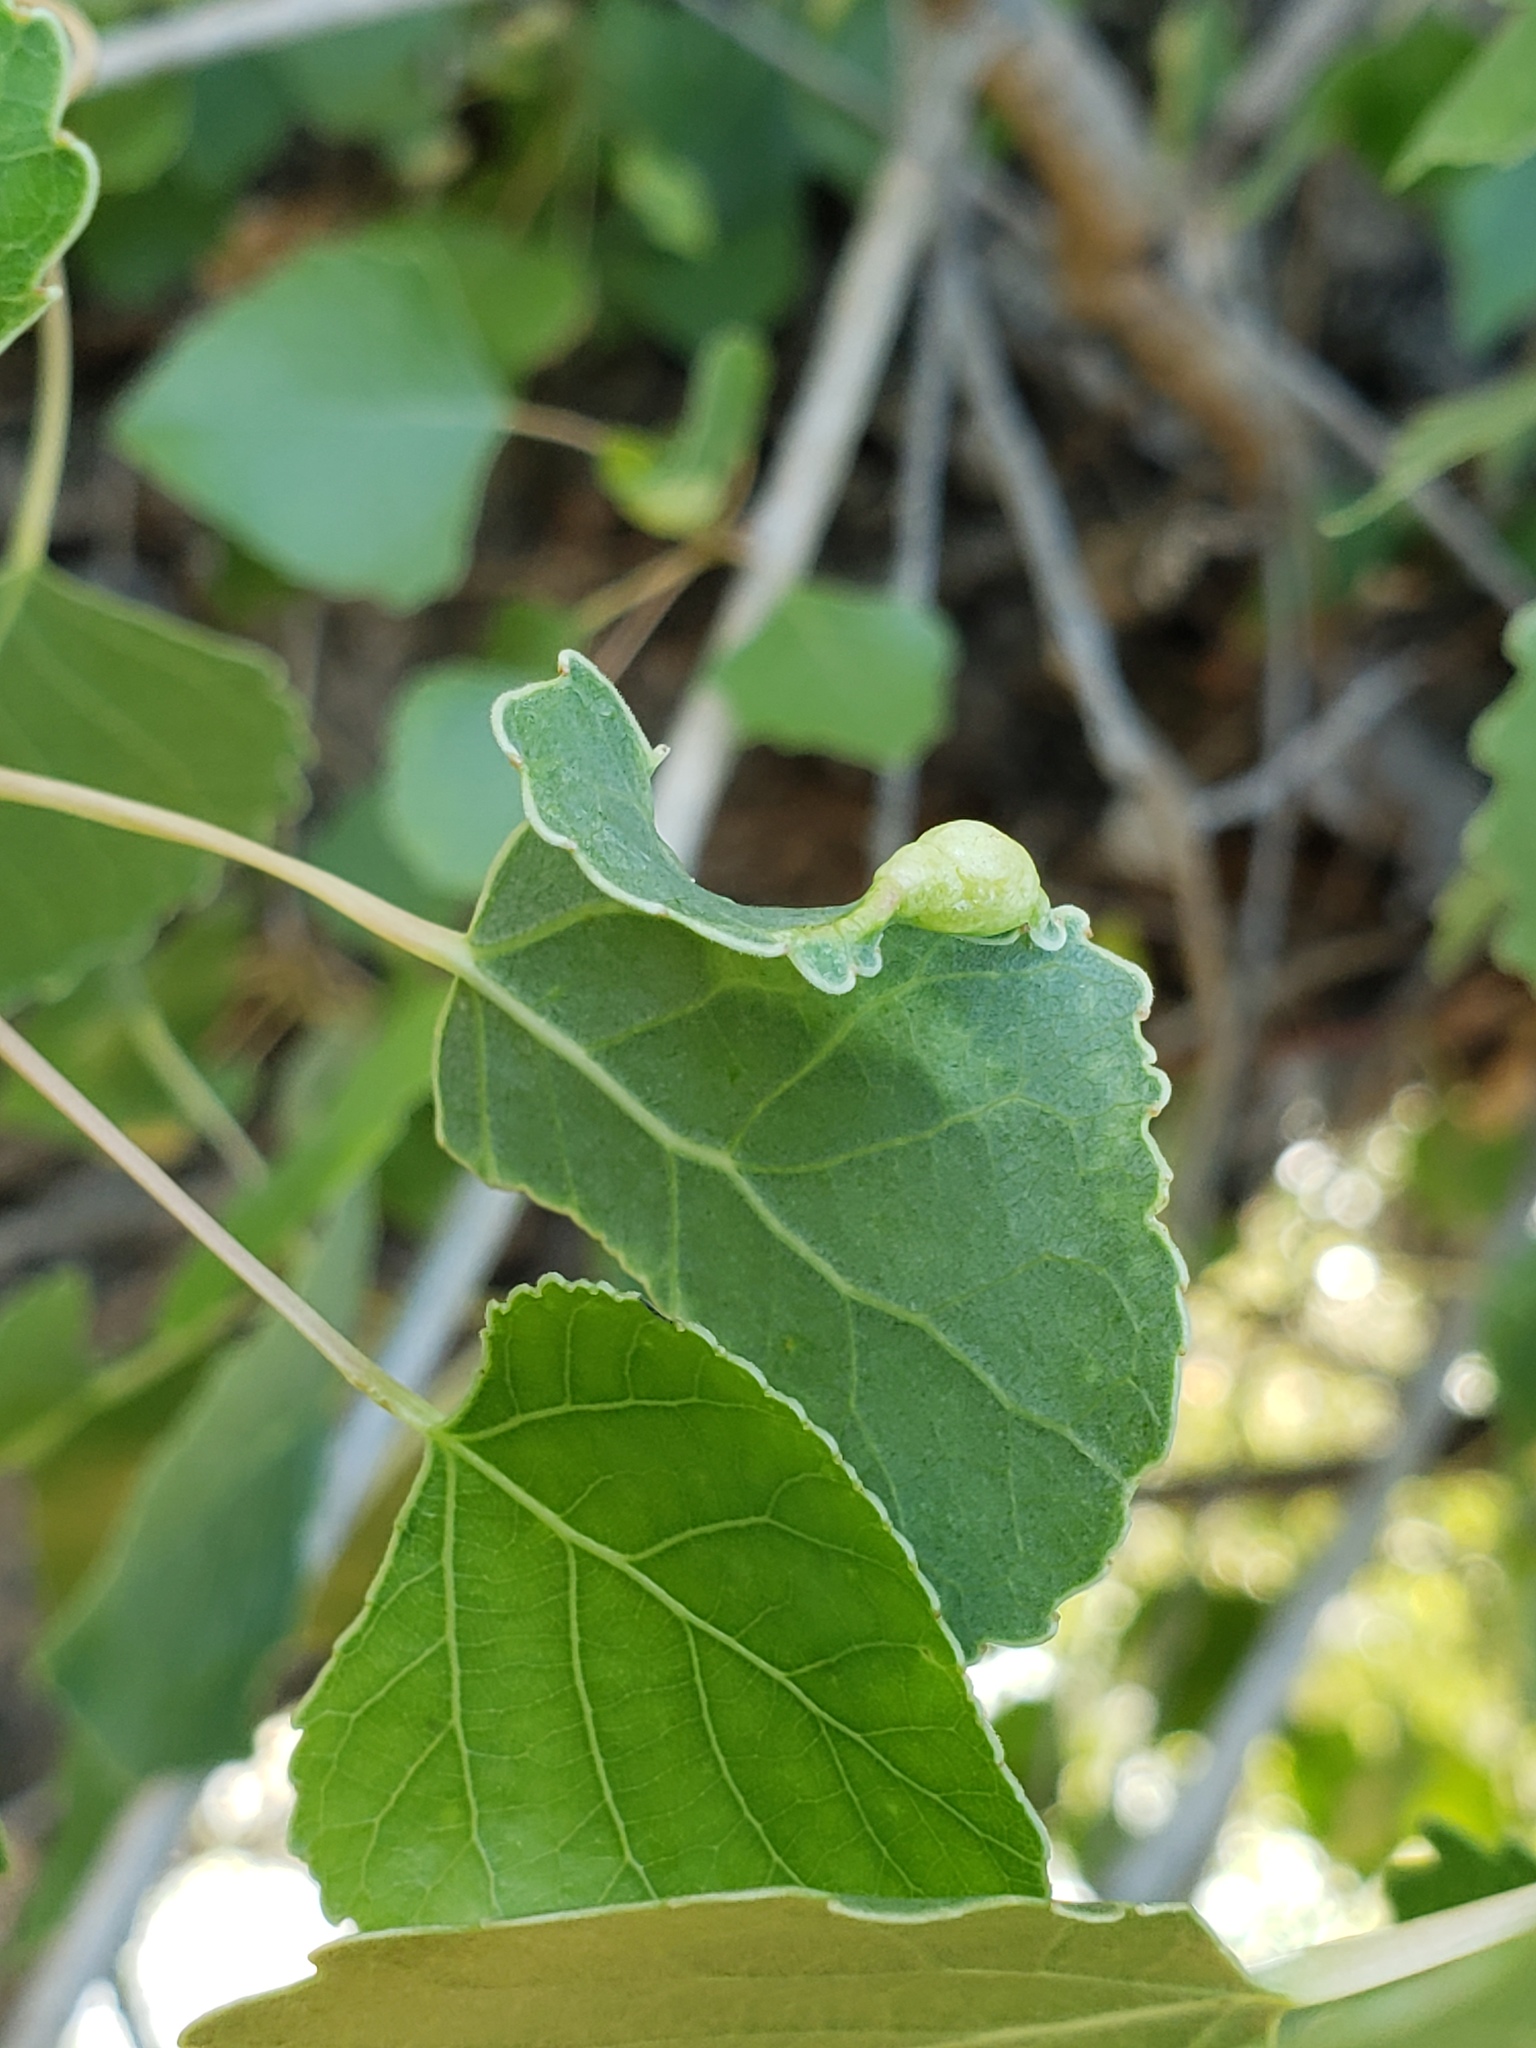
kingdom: Animalia
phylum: Arthropoda
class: Insecta
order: Hemiptera
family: Aphididae
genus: Thecabius
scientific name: Thecabius populimonilis
